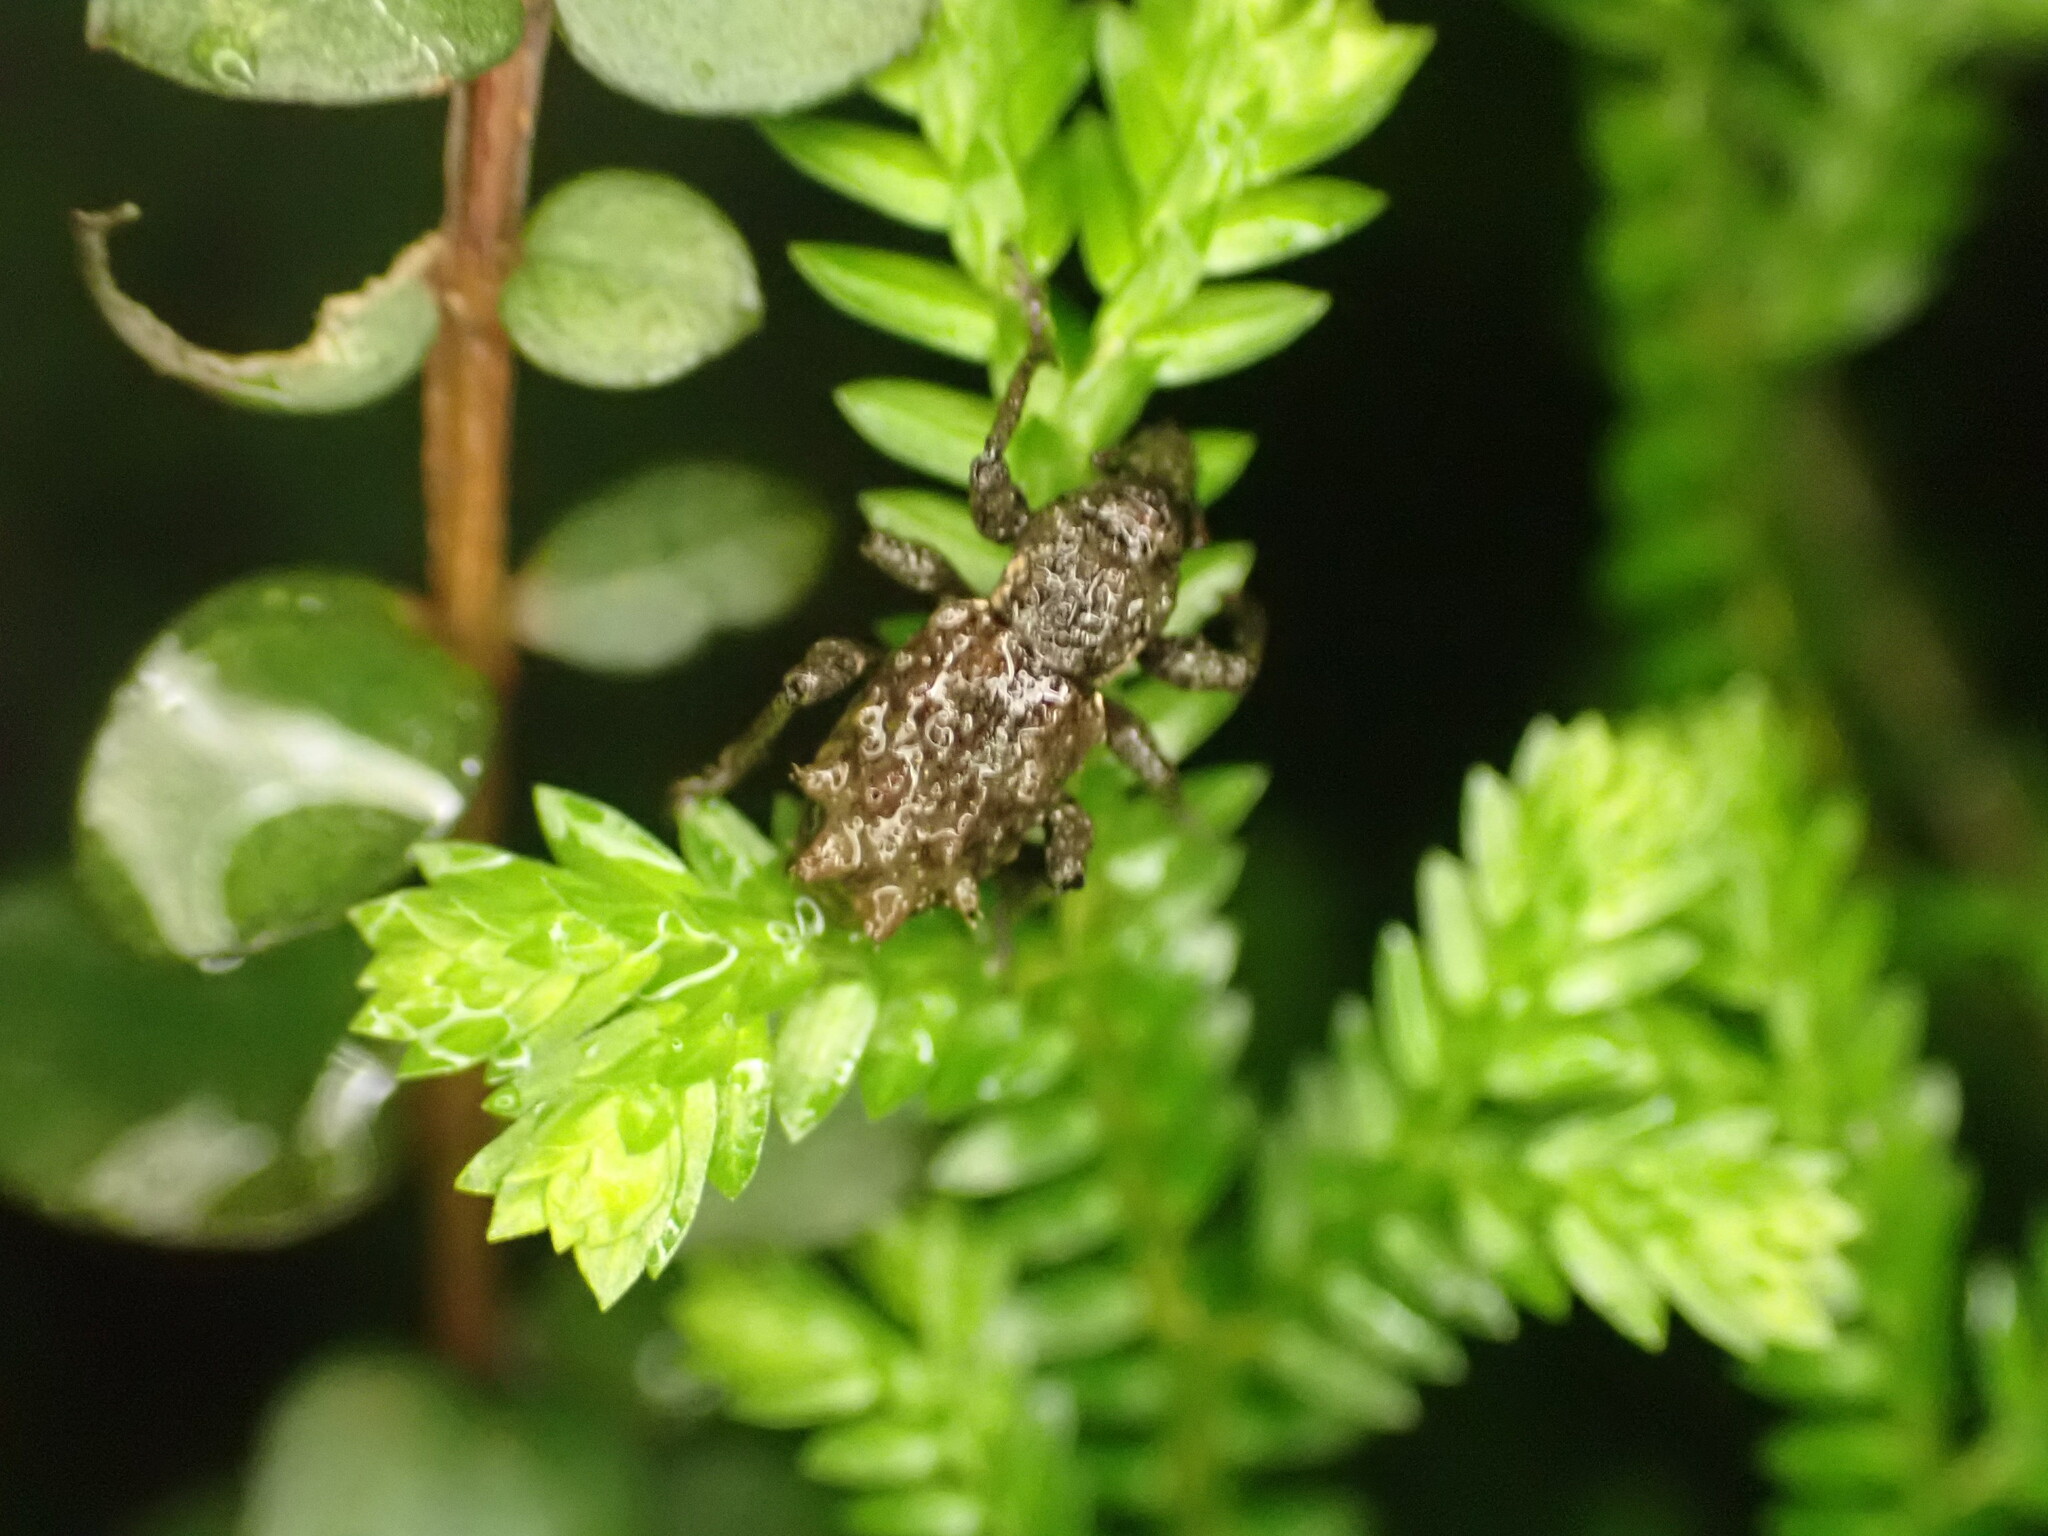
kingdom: Animalia
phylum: Arthropoda
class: Insecta
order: Coleoptera
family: Curculionidae
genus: Catoptes
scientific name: Catoptes coronatus
